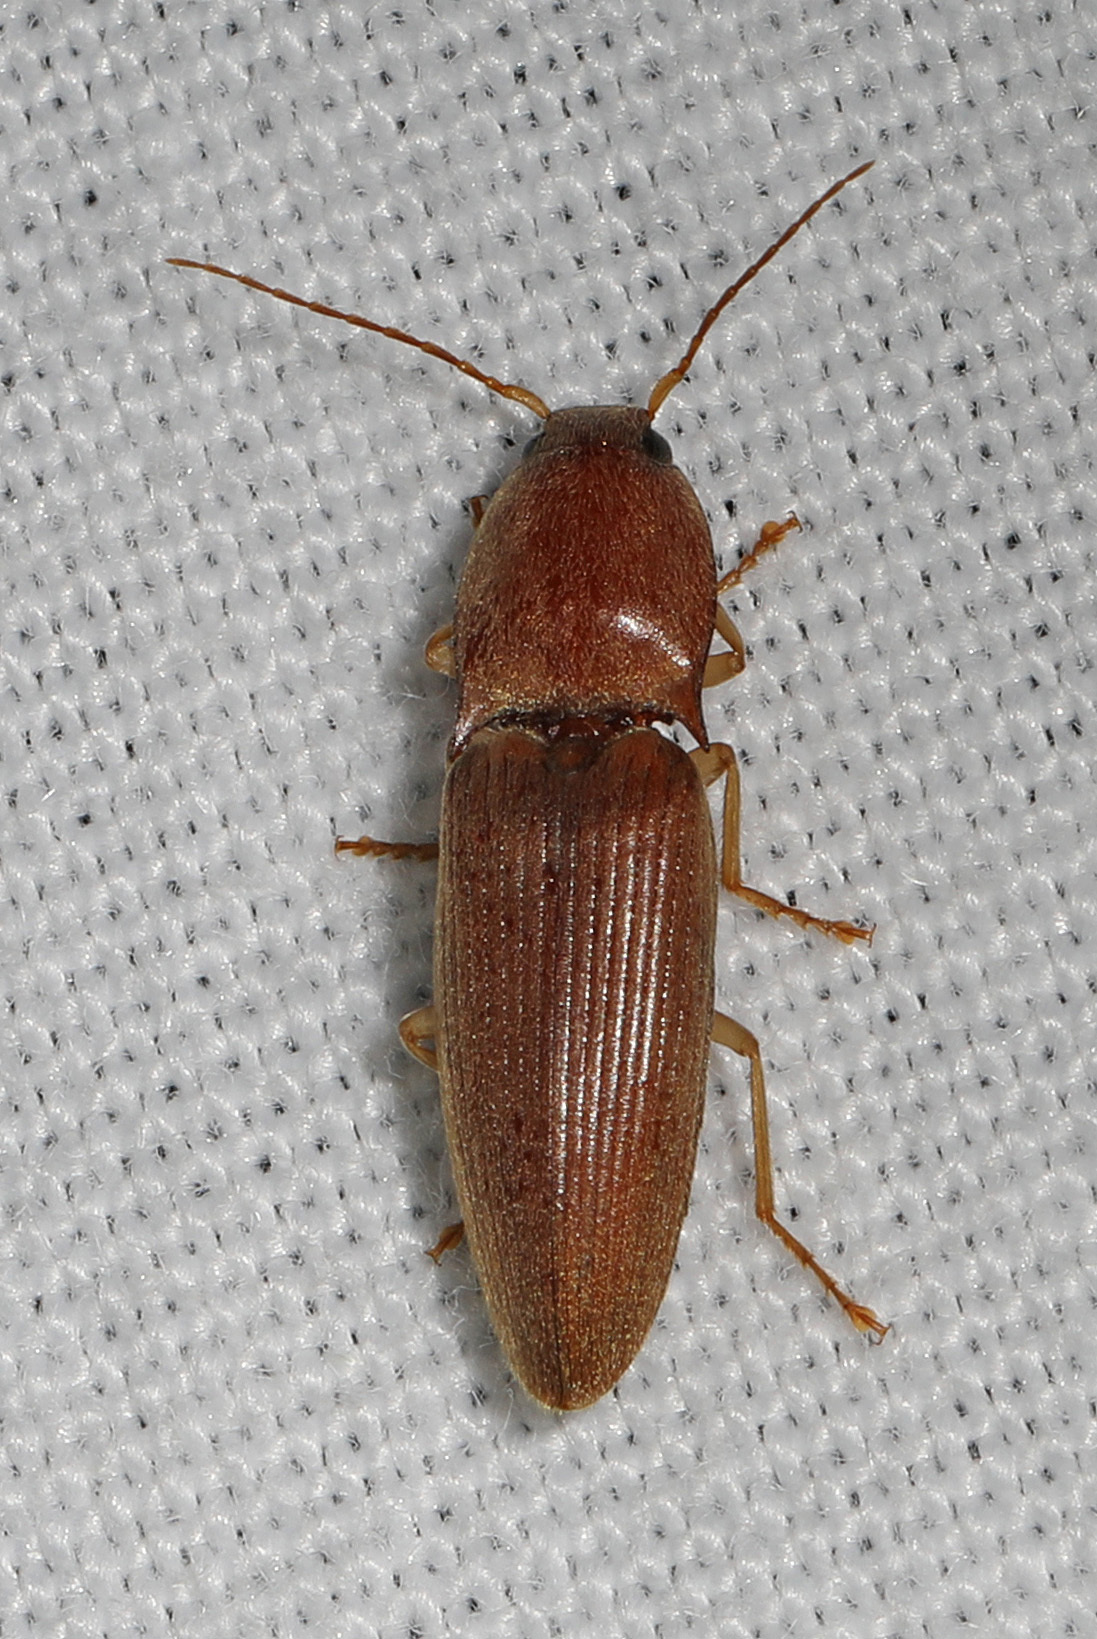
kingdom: Animalia
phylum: Arthropoda
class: Insecta
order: Coleoptera
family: Elateridae
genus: Monocrepidius
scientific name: Monocrepidius lividus
